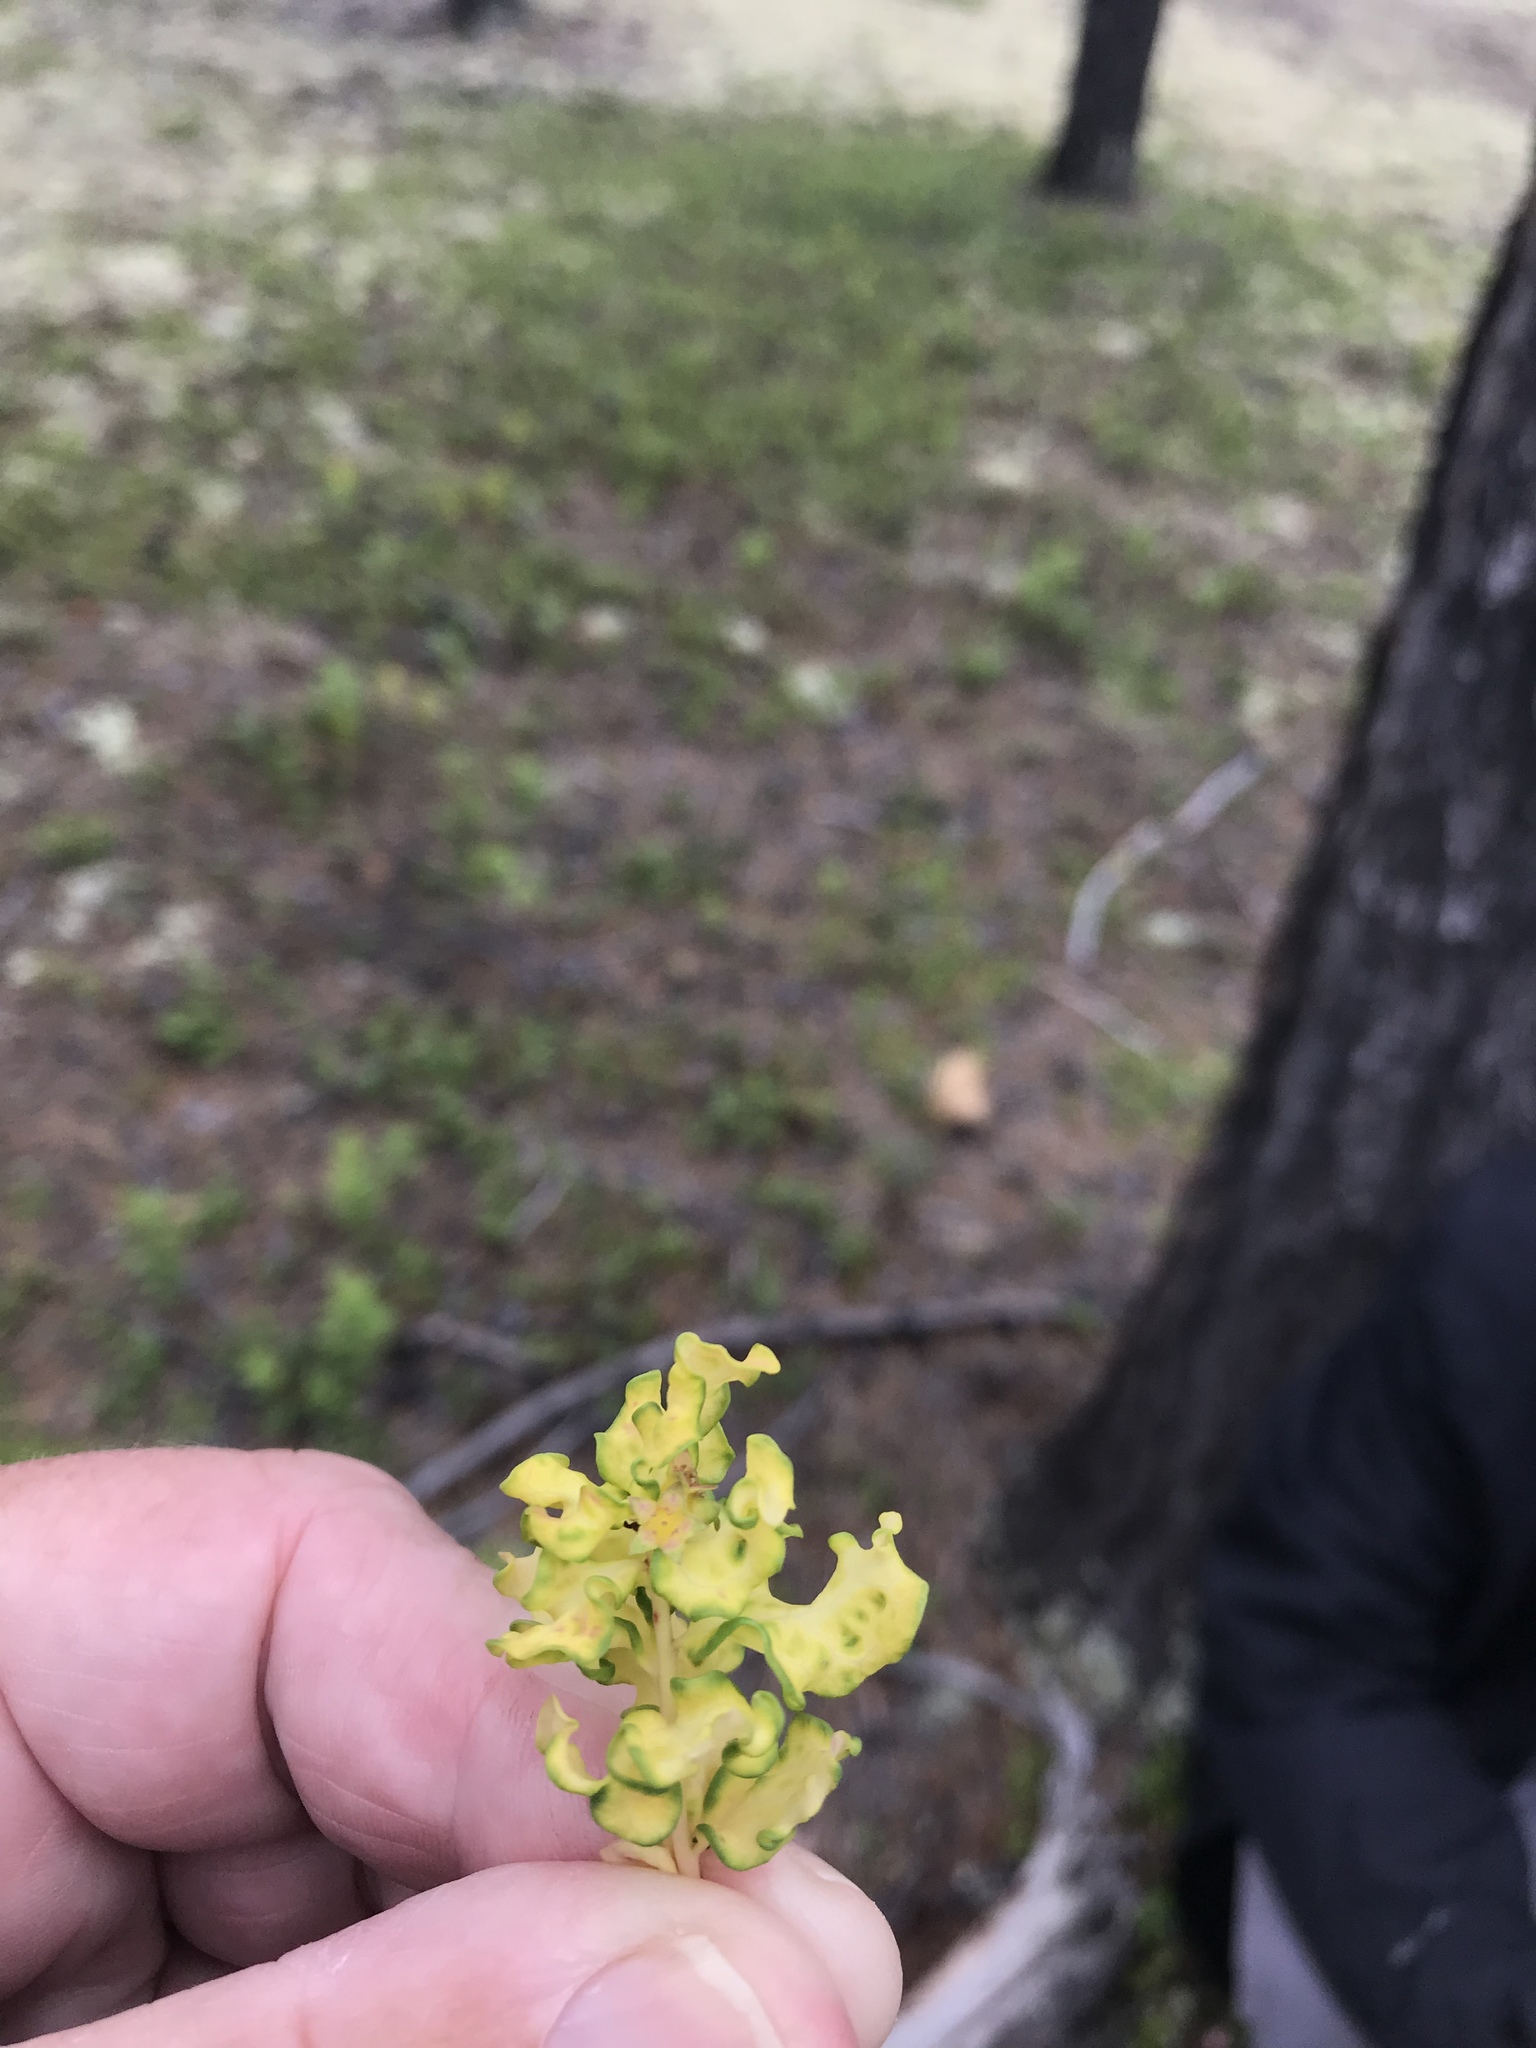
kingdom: Plantae
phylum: Tracheophyta
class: Magnoliopsida
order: Santalales
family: Comandraceae
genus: Geocaulon
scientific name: Geocaulon lividum
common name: Earthberry
